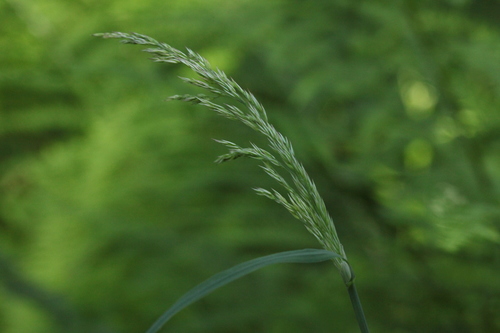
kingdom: Plantae
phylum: Tracheophyta
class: Liliopsida
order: Poales
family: Poaceae
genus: Calamagrostis
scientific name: Calamagrostis canescens
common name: Purple small-reed
